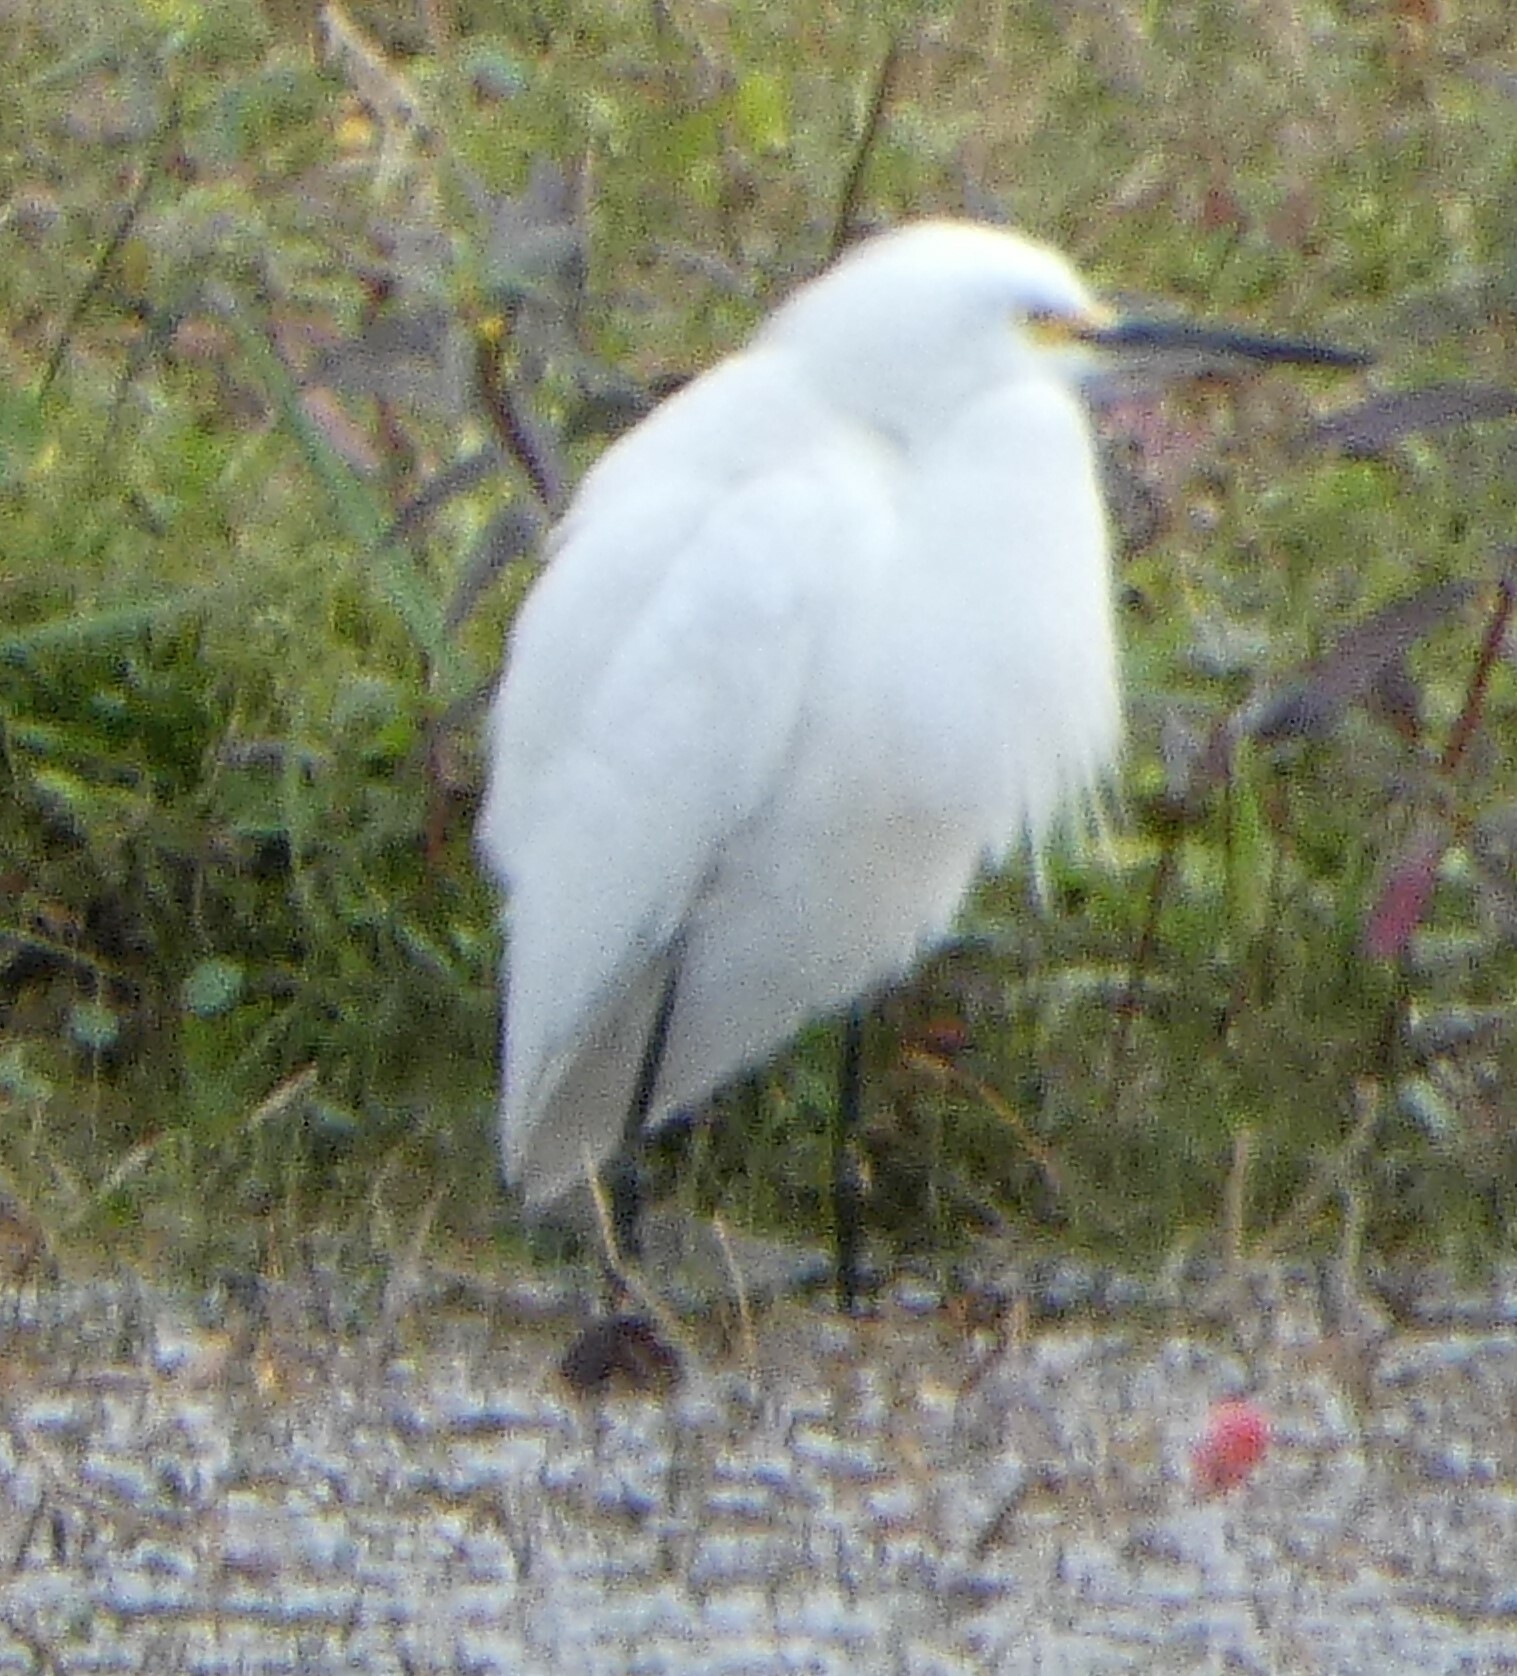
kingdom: Animalia
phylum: Chordata
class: Aves
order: Pelecaniformes
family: Ardeidae
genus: Egretta
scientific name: Egretta thula
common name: Snowy egret
